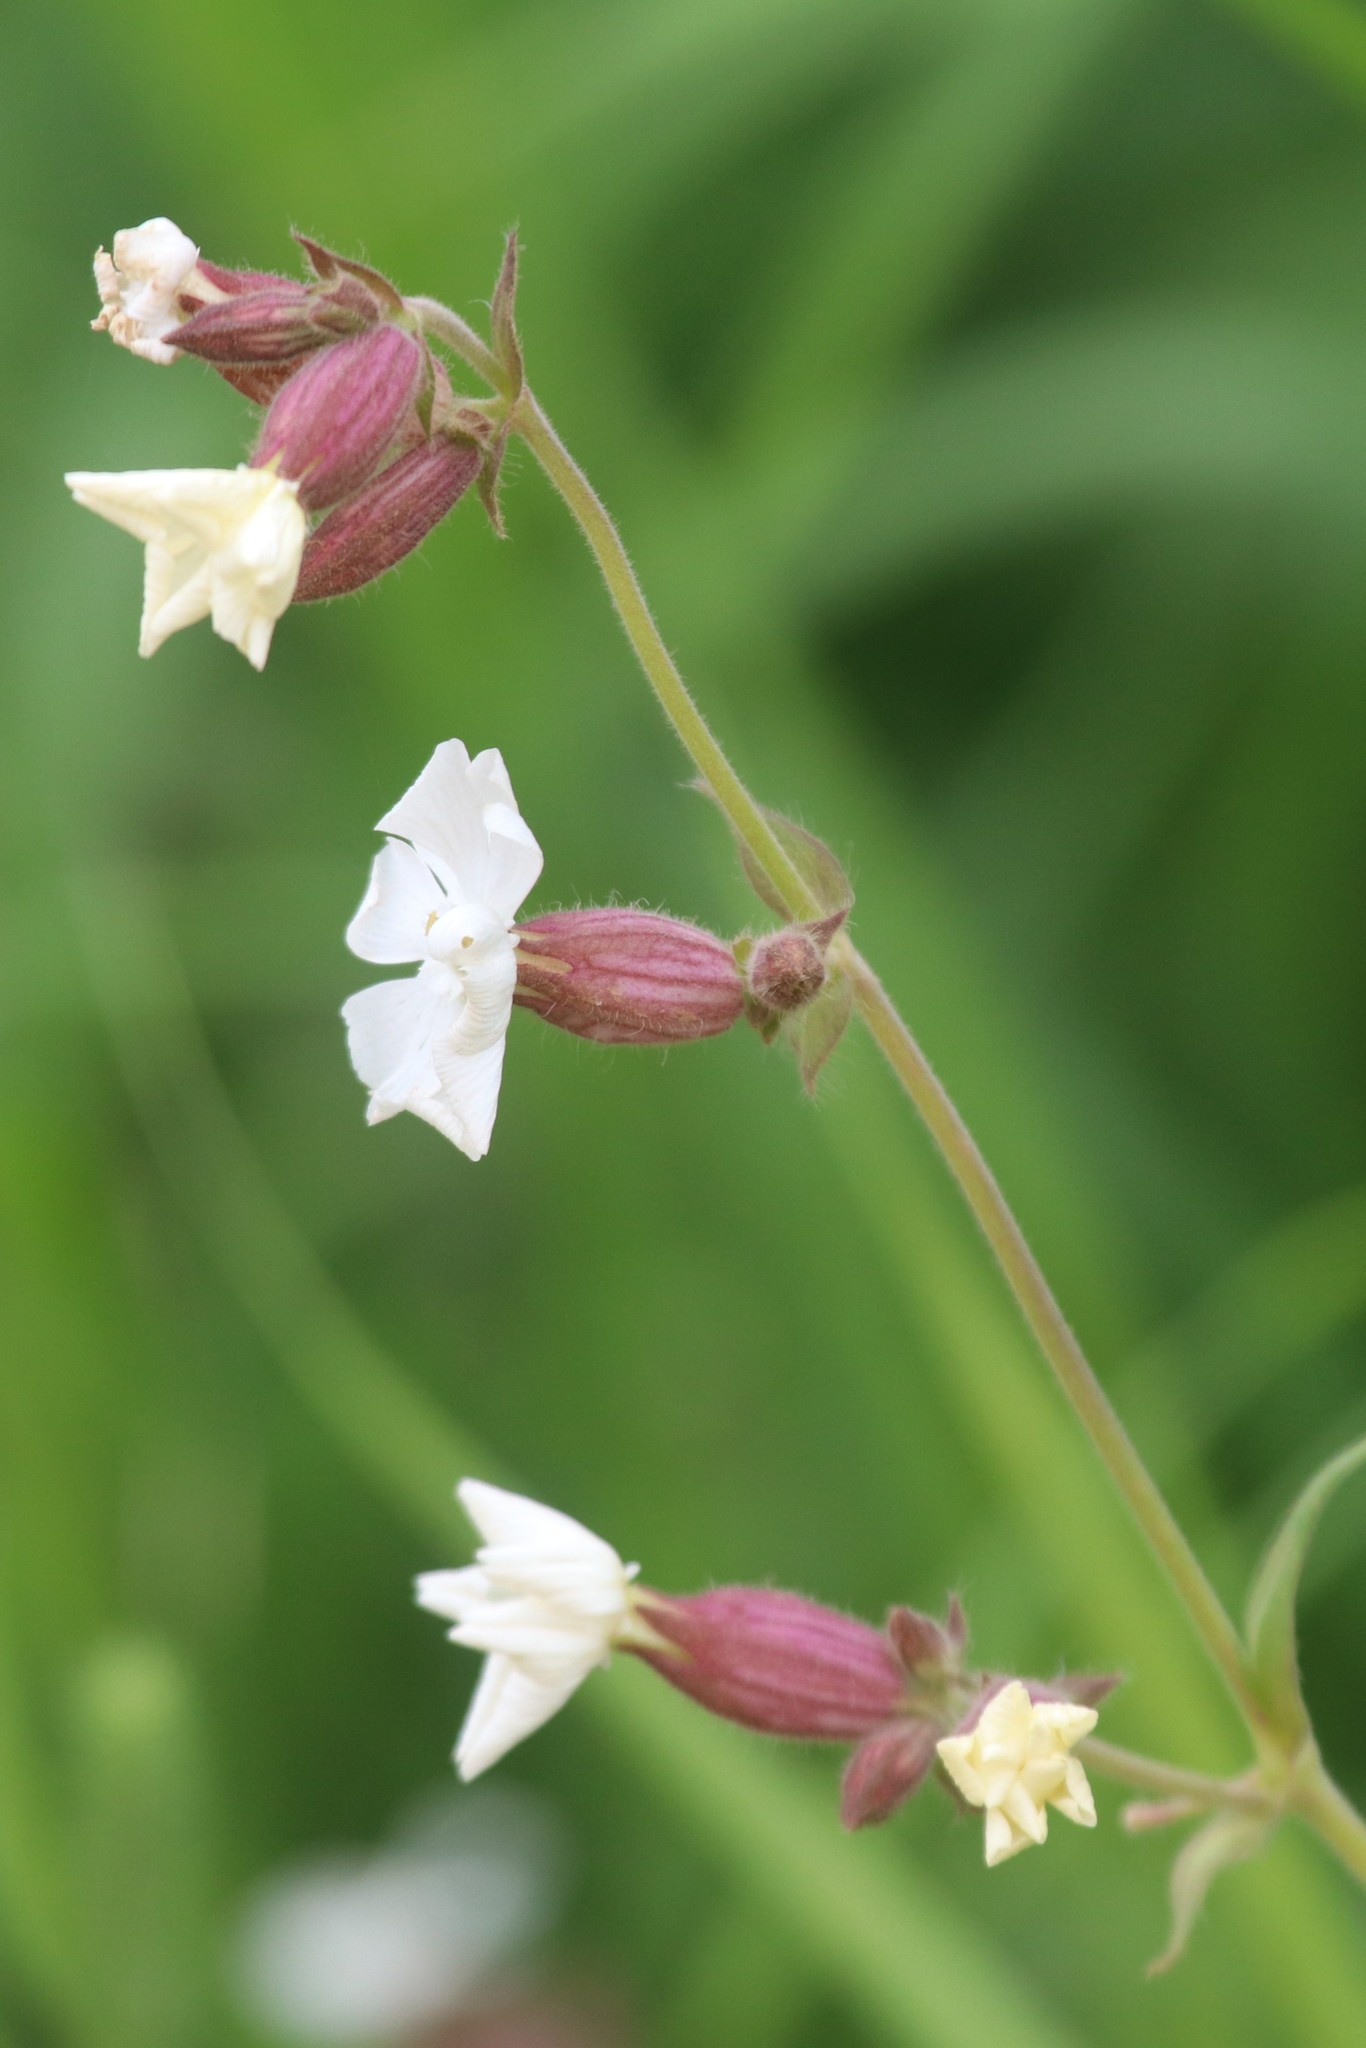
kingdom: Plantae
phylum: Tracheophyta
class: Magnoliopsida
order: Caryophyllales
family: Caryophyllaceae
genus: Silene
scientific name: Silene latifolia
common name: White campion
